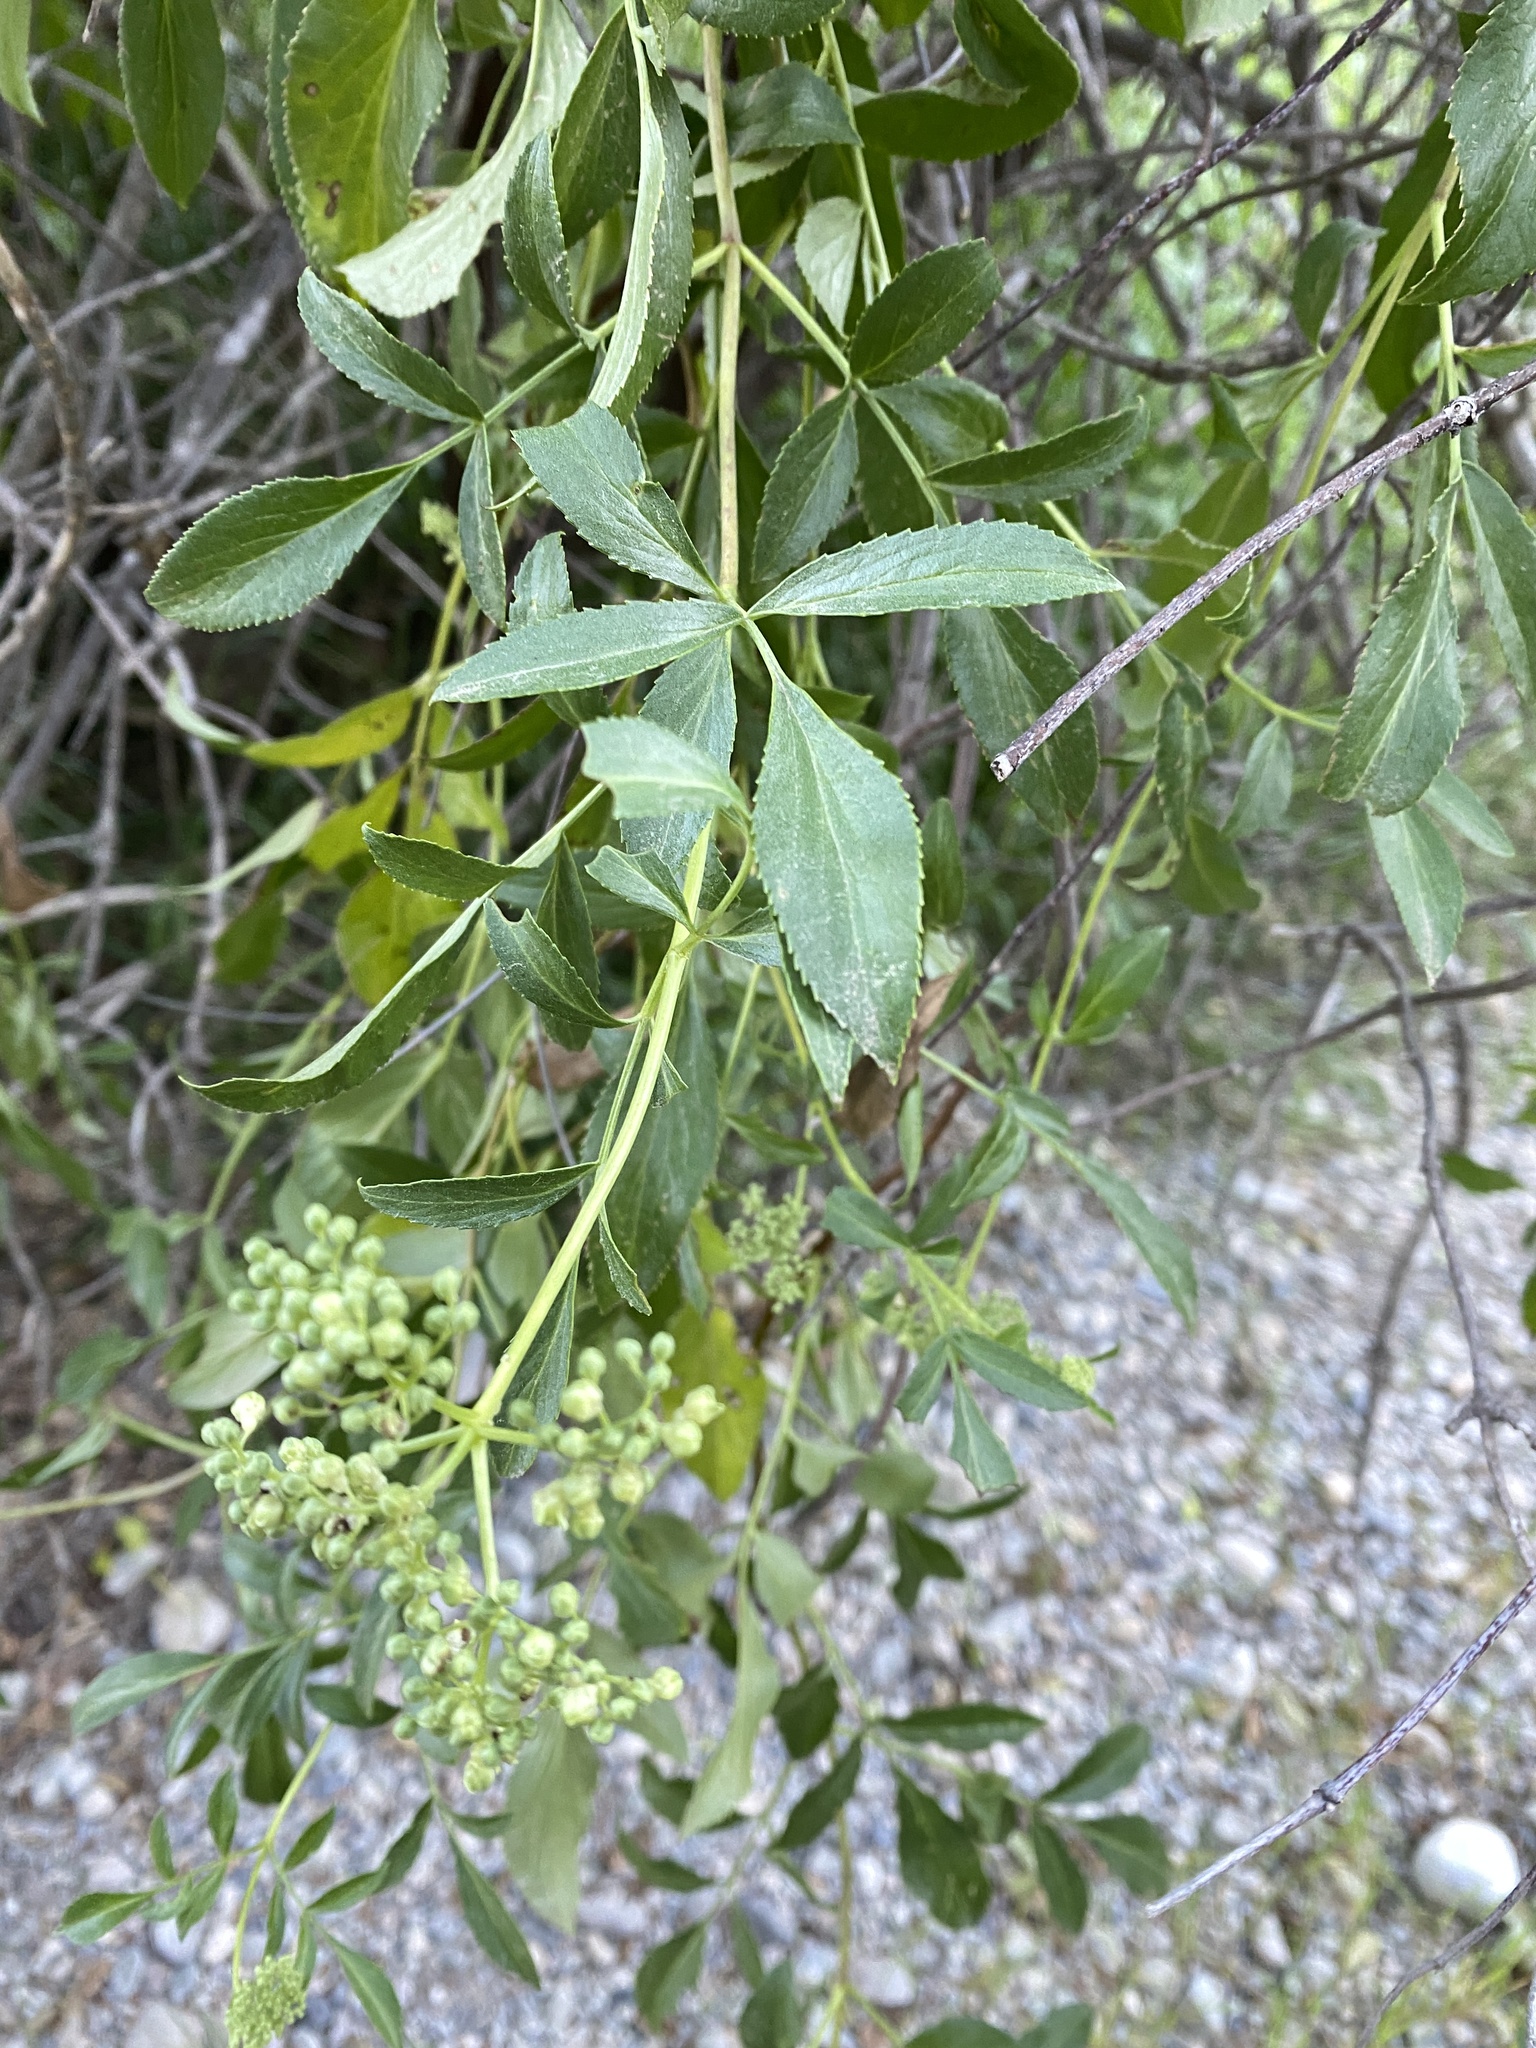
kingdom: Plantae
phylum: Tracheophyta
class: Magnoliopsida
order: Dipsacales
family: Viburnaceae
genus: Sambucus
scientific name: Sambucus cerulea
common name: Blue elder
